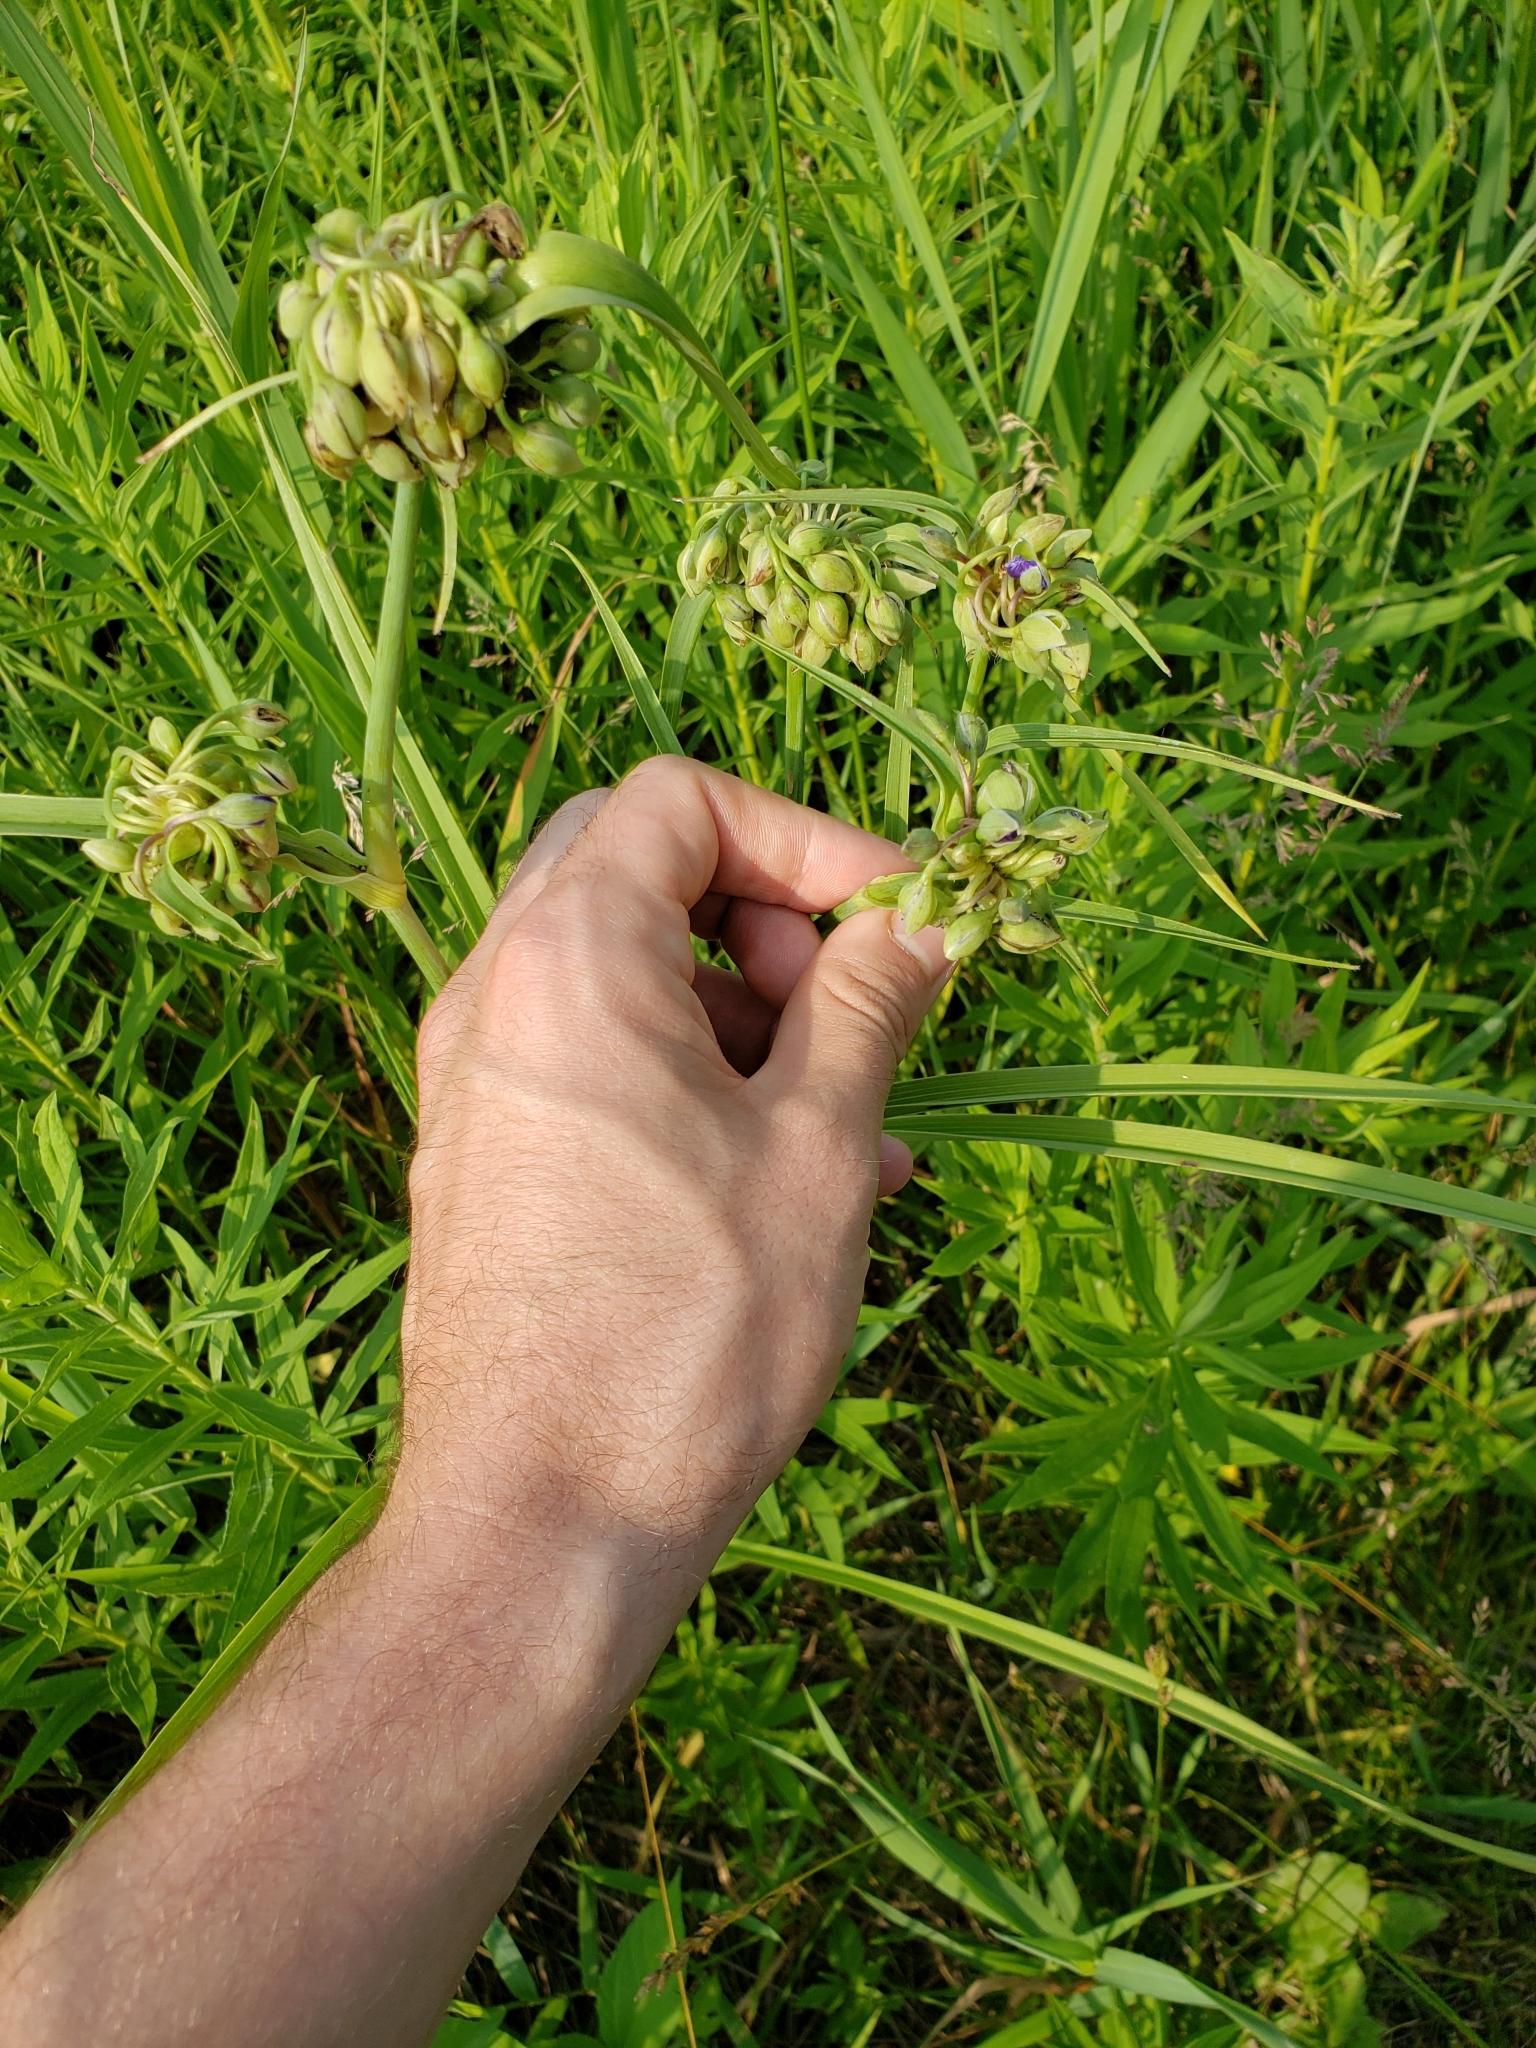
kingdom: Plantae
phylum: Tracheophyta
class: Liliopsida
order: Commelinales
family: Commelinaceae
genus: Tradescantia
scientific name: Tradescantia ohiensis
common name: Ohio spiderwort
